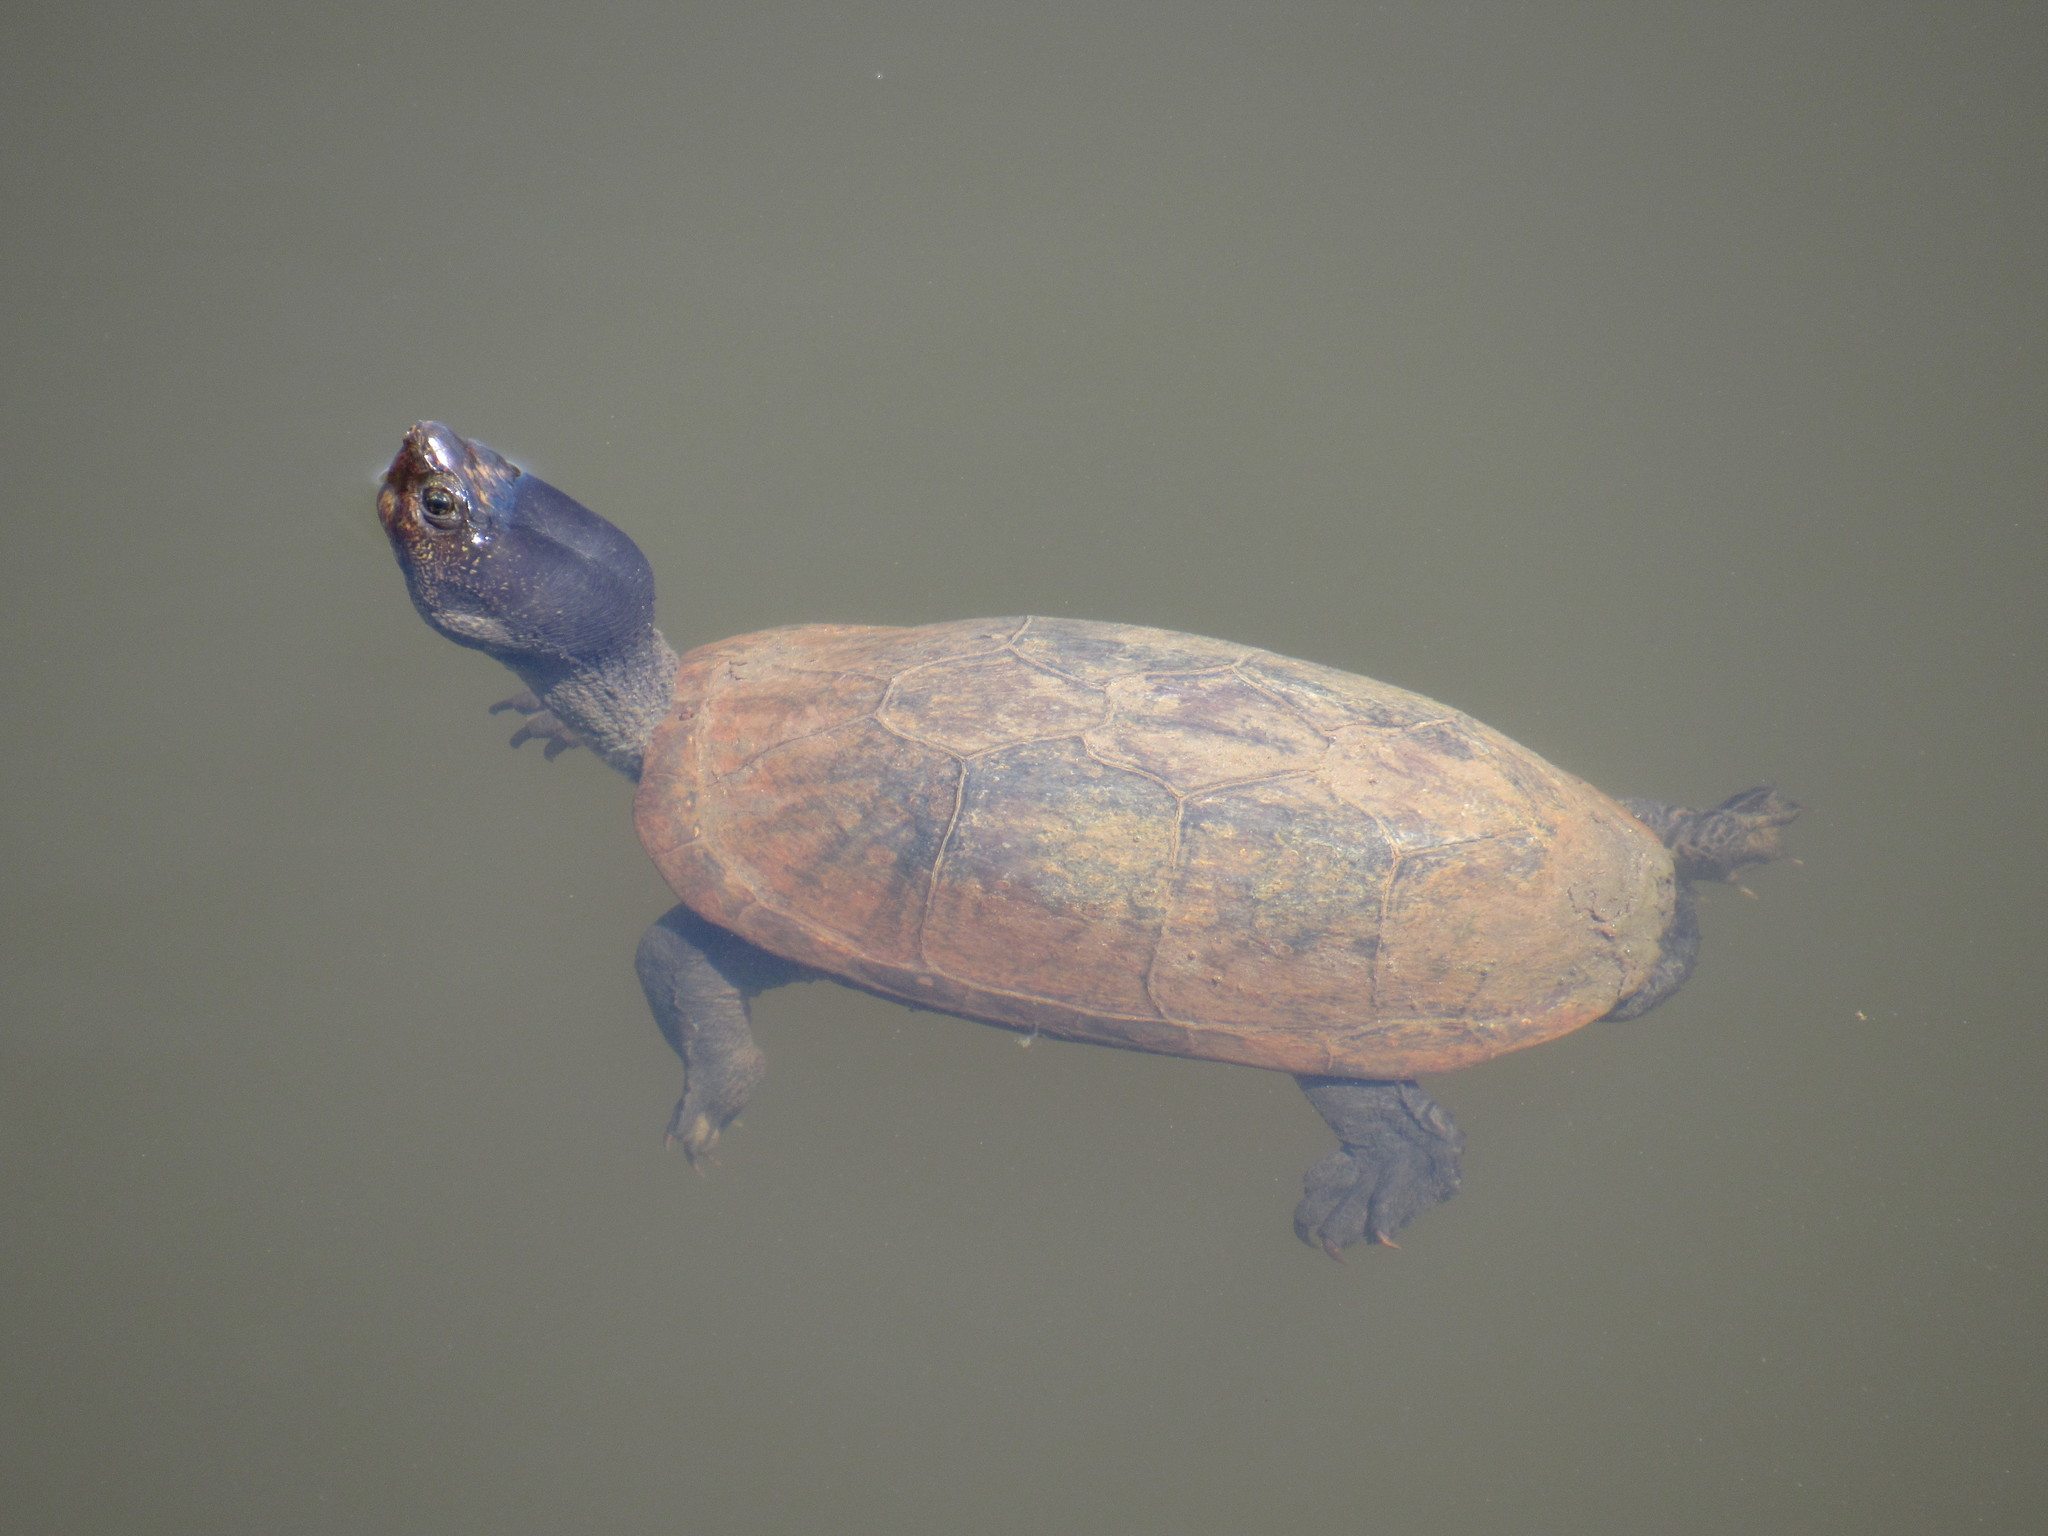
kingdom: Animalia
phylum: Chordata
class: Testudines
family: Kinosternidae
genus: Kinosternon
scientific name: Kinosternon integrum
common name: Mexican mud turtle
